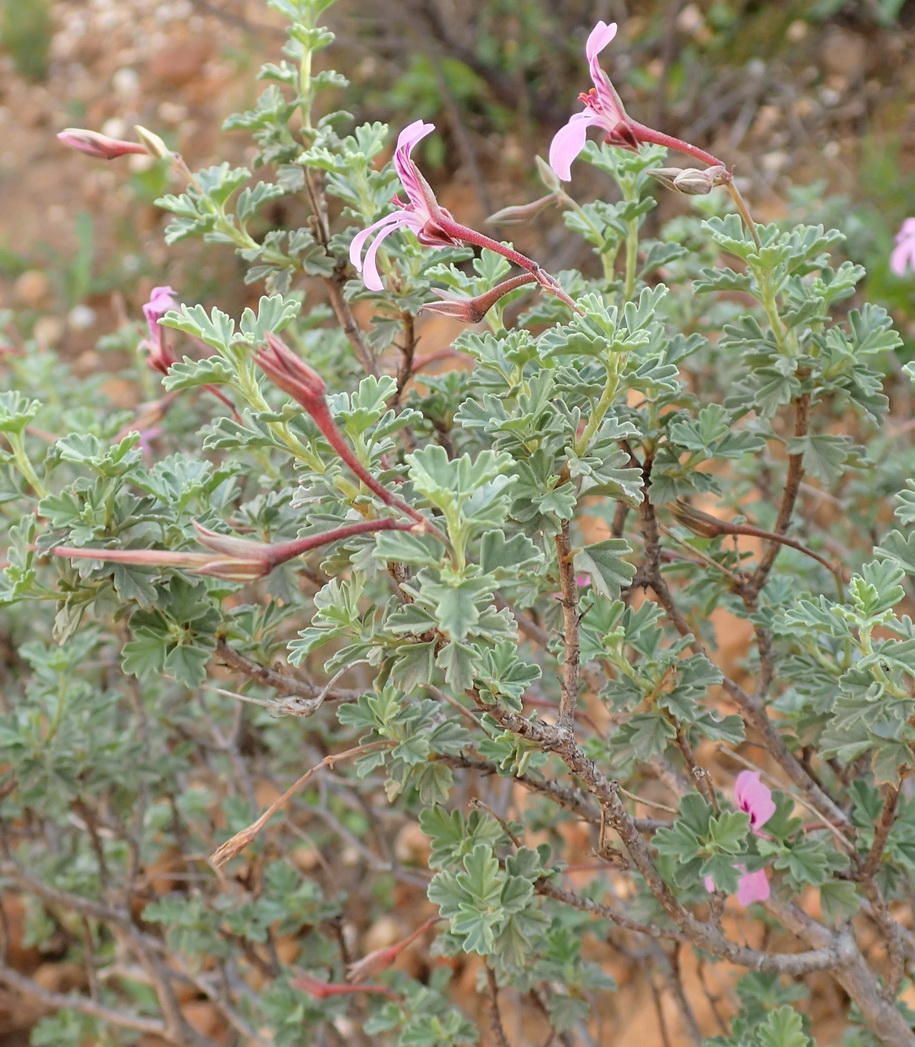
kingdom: Plantae
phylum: Tracheophyta
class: Magnoliopsida
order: Geraniales
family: Geraniaceae
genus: Pelargonium
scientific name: Pelargonium exstipulatum
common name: Soft-leaf trifid pelargonium
